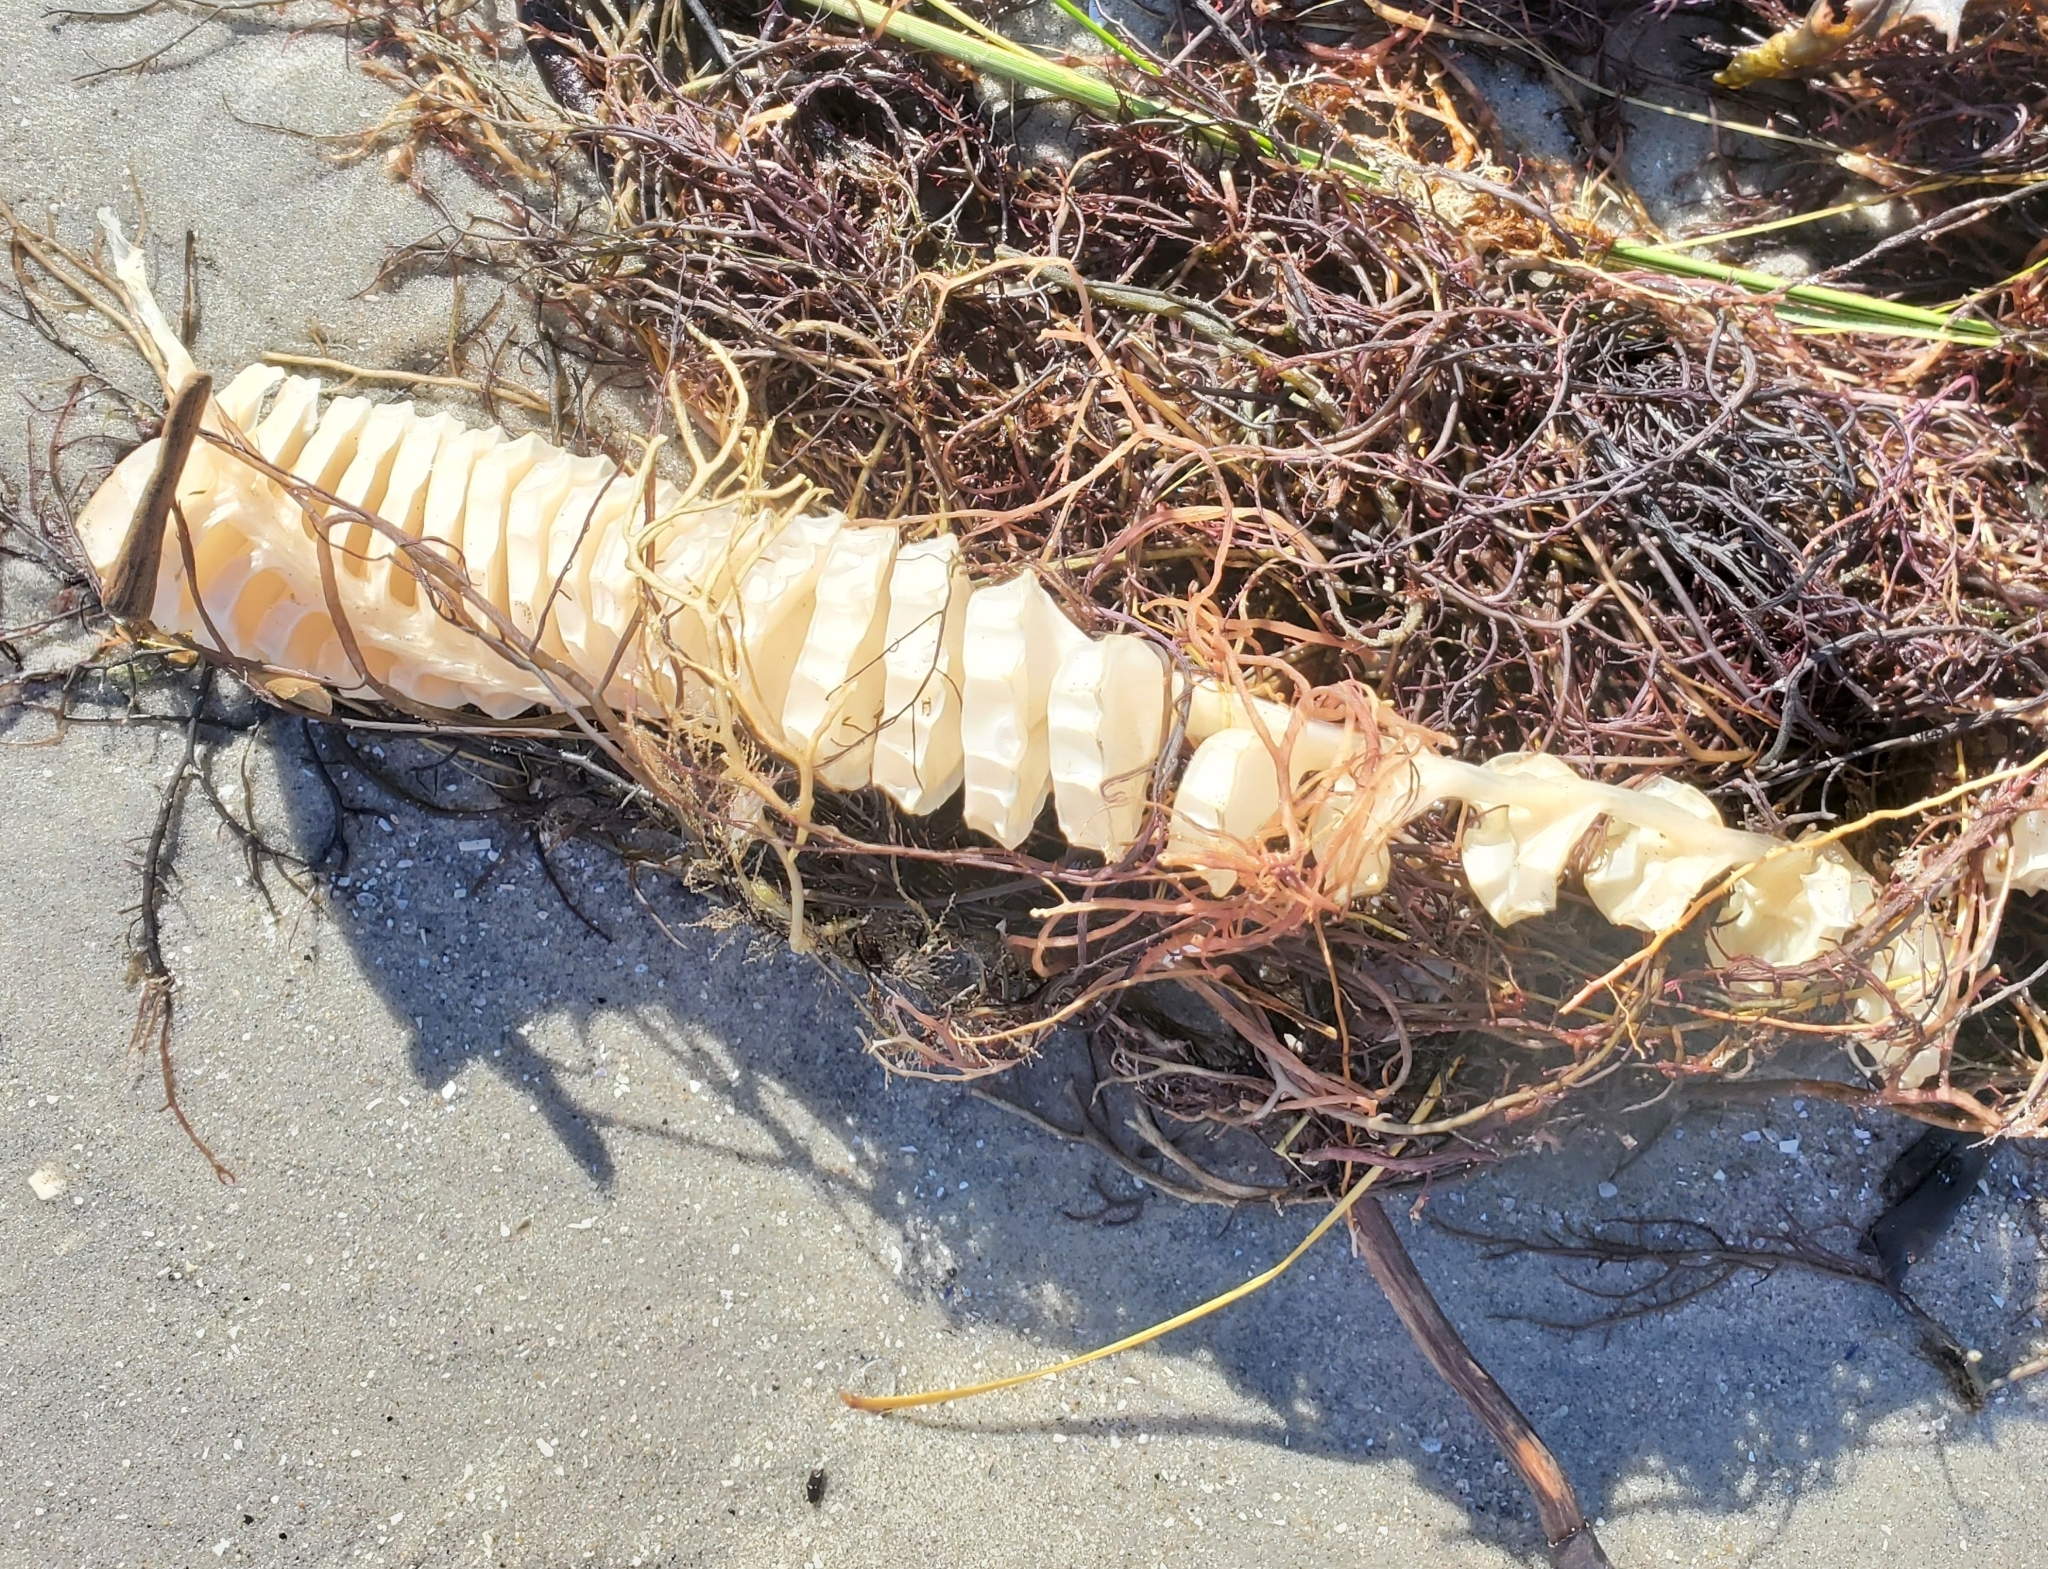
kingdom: Animalia
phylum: Mollusca
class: Gastropoda
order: Neogastropoda
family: Busyconidae
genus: Busycon
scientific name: Busycon carica
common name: Knobbed whelk
